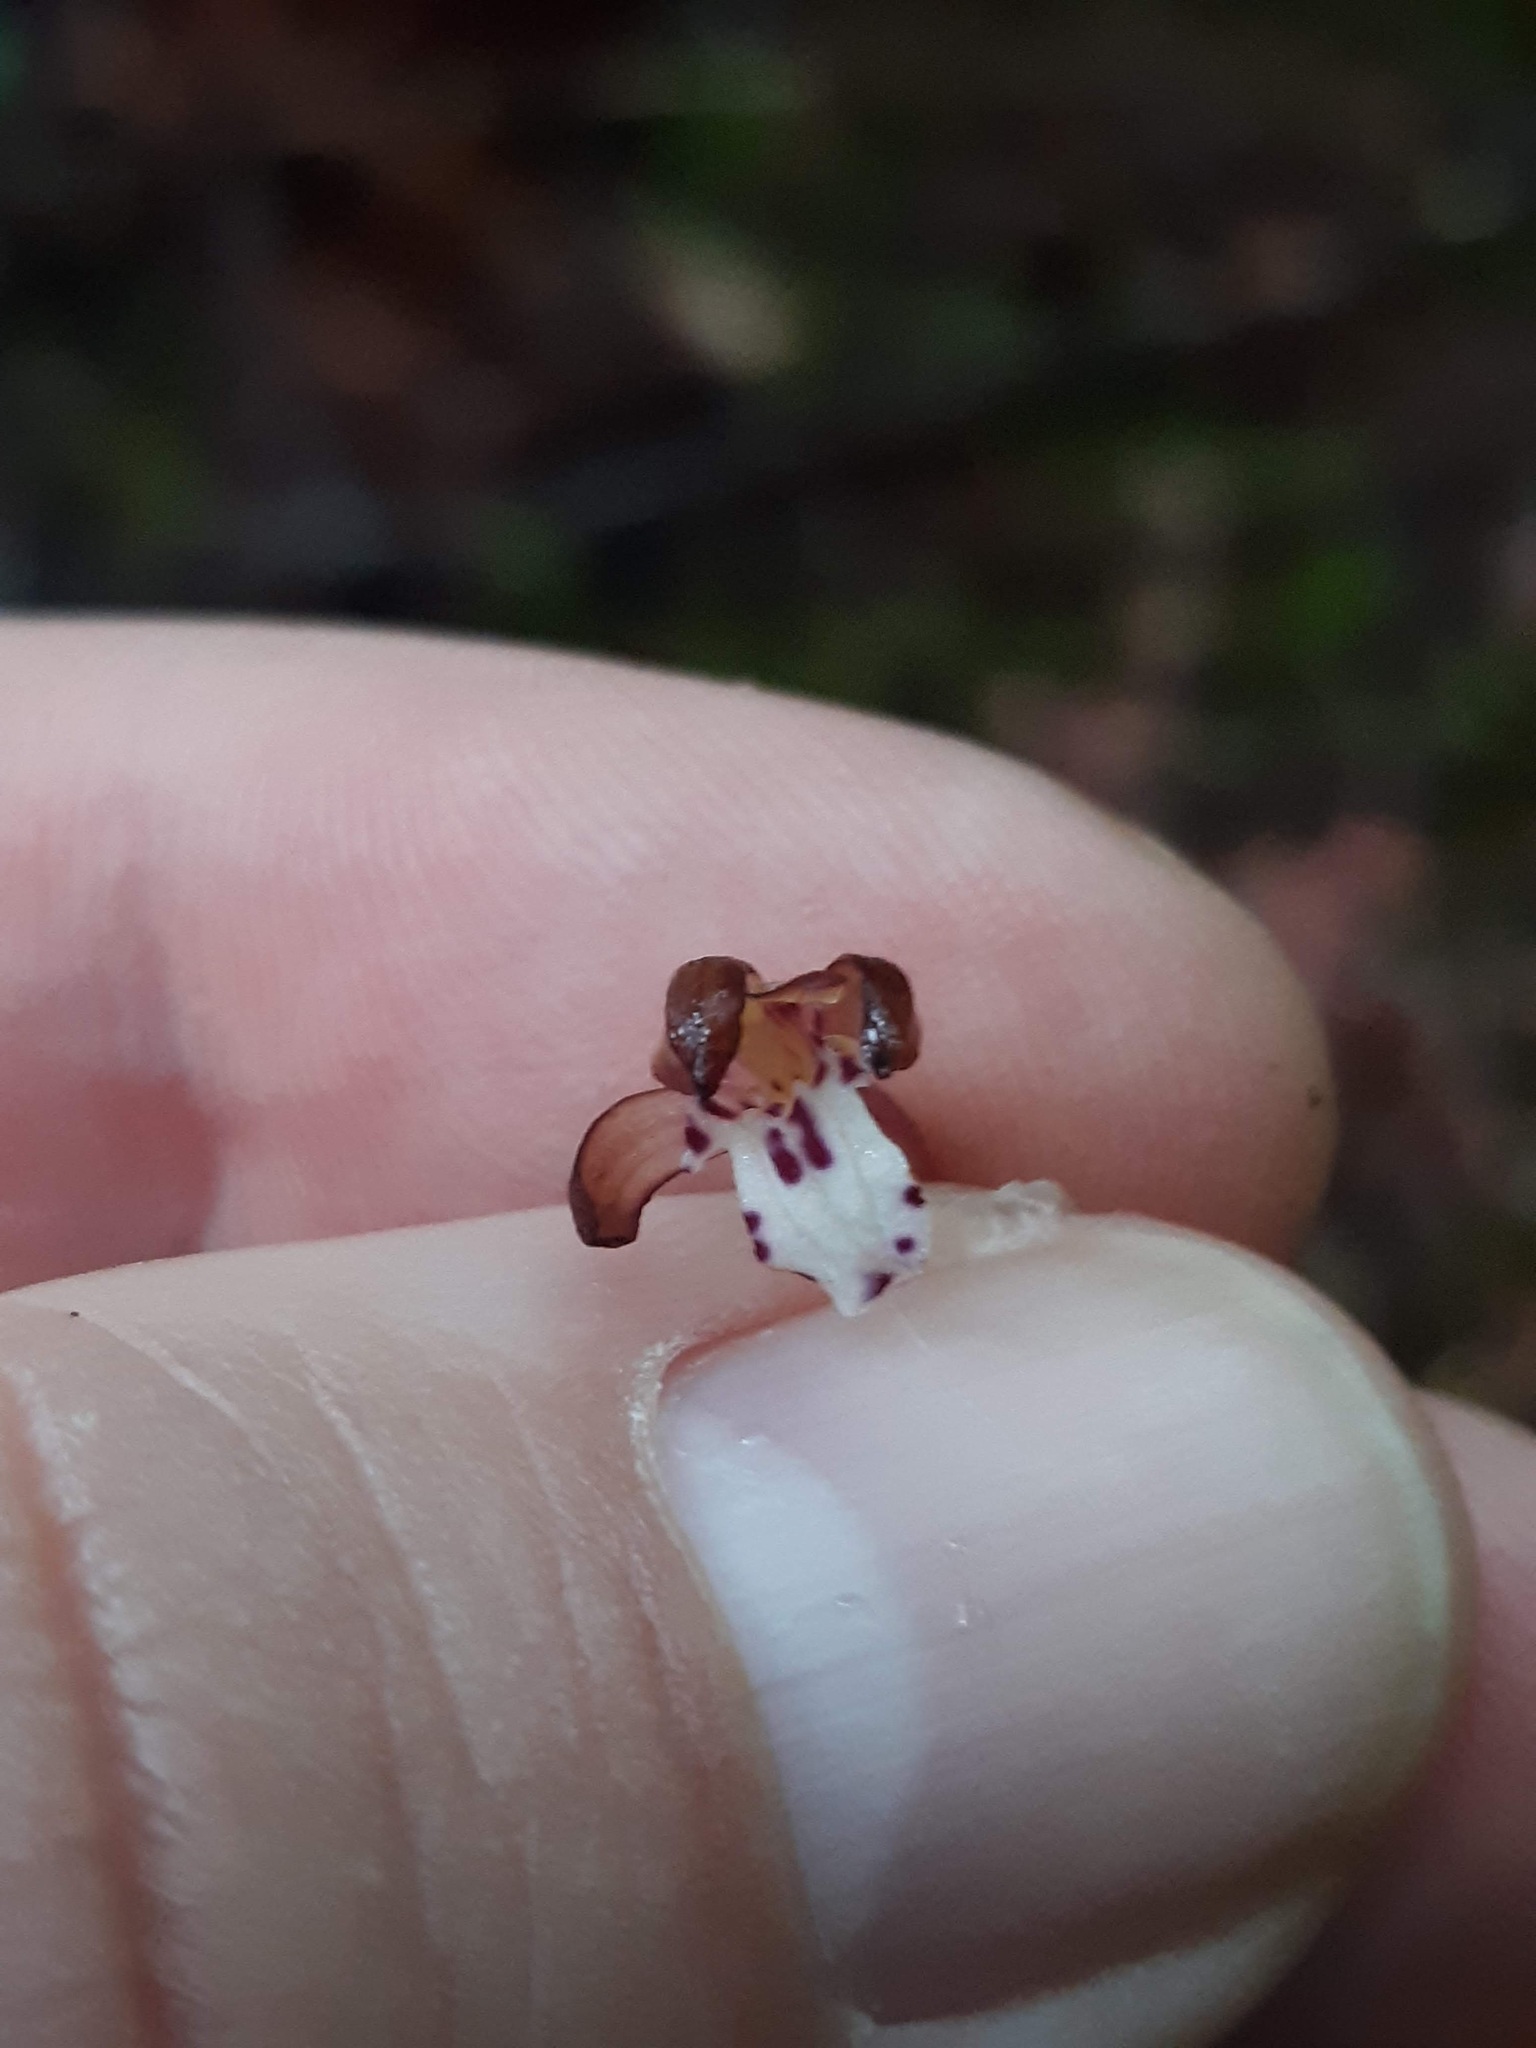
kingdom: Plantae
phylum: Tracheophyta
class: Liliopsida
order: Asparagales
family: Orchidaceae
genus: Corallorhiza
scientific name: Corallorhiza maculata
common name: Spotted coralroot
